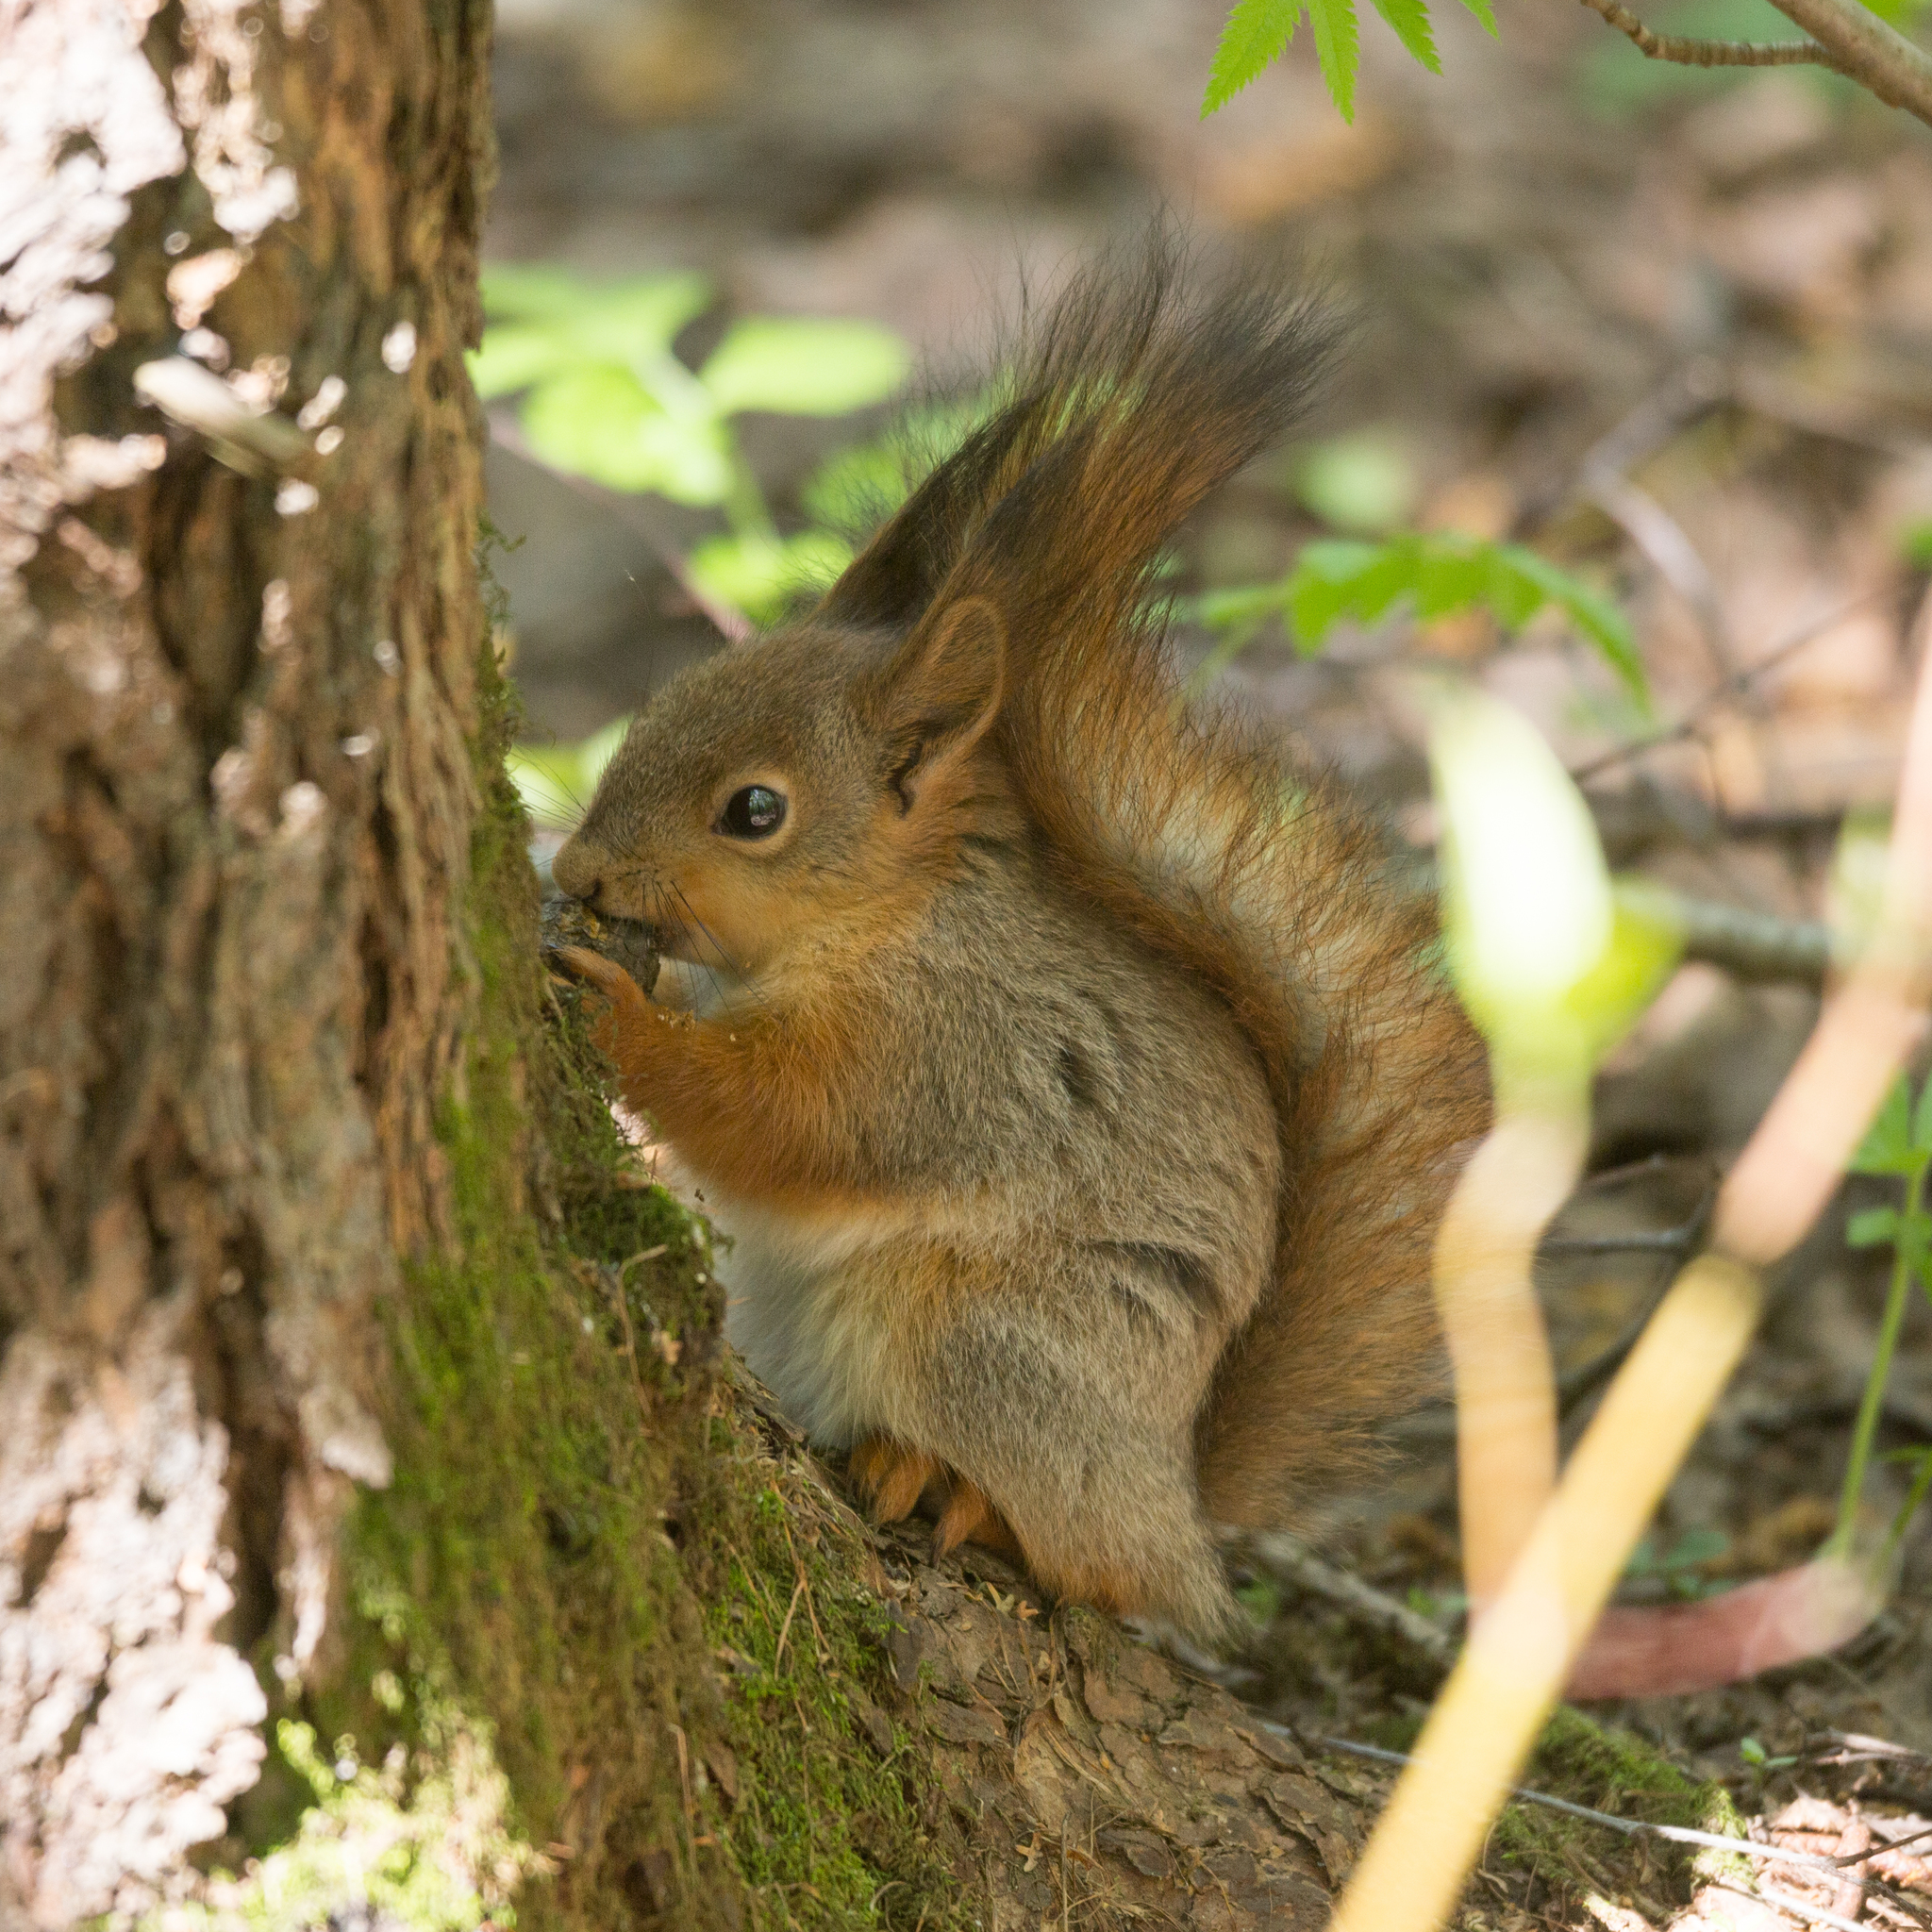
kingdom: Animalia
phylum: Chordata
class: Mammalia
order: Rodentia
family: Sciuridae
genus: Sciurus
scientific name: Sciurus vulgaris
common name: Eurasian red squirrel
